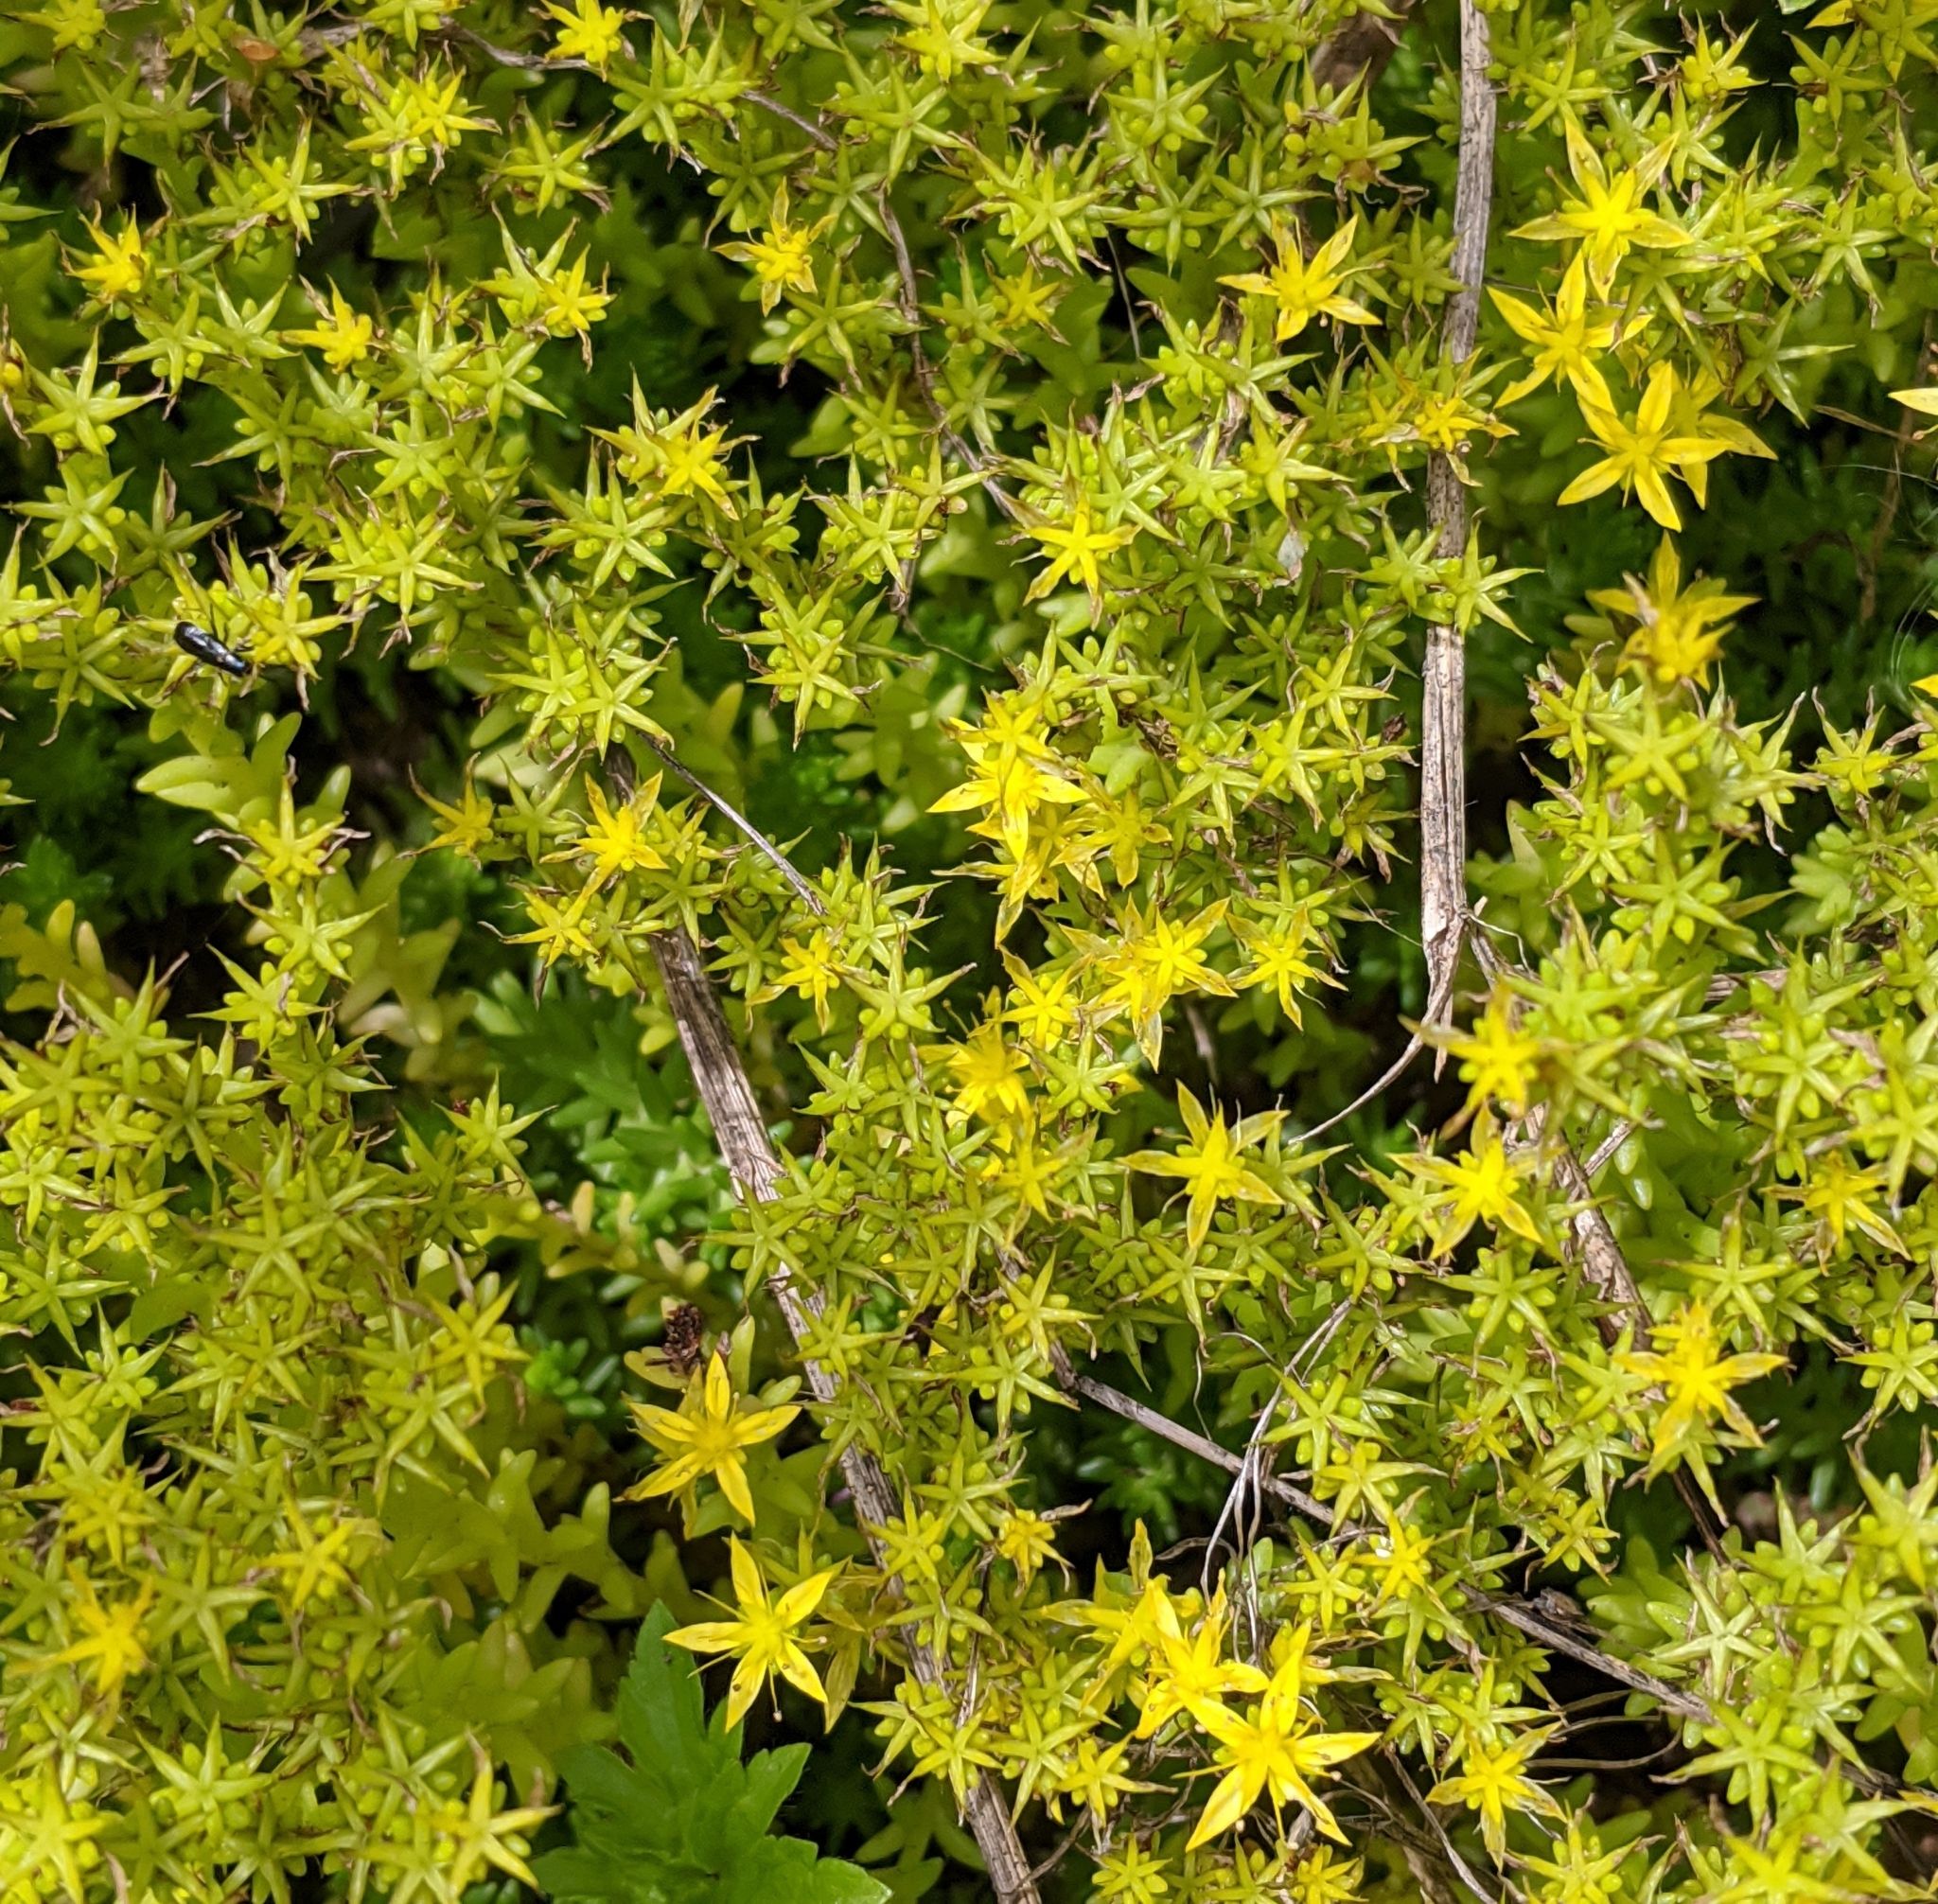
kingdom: Plantae
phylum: Tracheophyta
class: Magnoliopsida
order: Saxifragales
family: Crassulaceae
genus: Sedum
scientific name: Sedum acre
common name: Biting stonecrop
